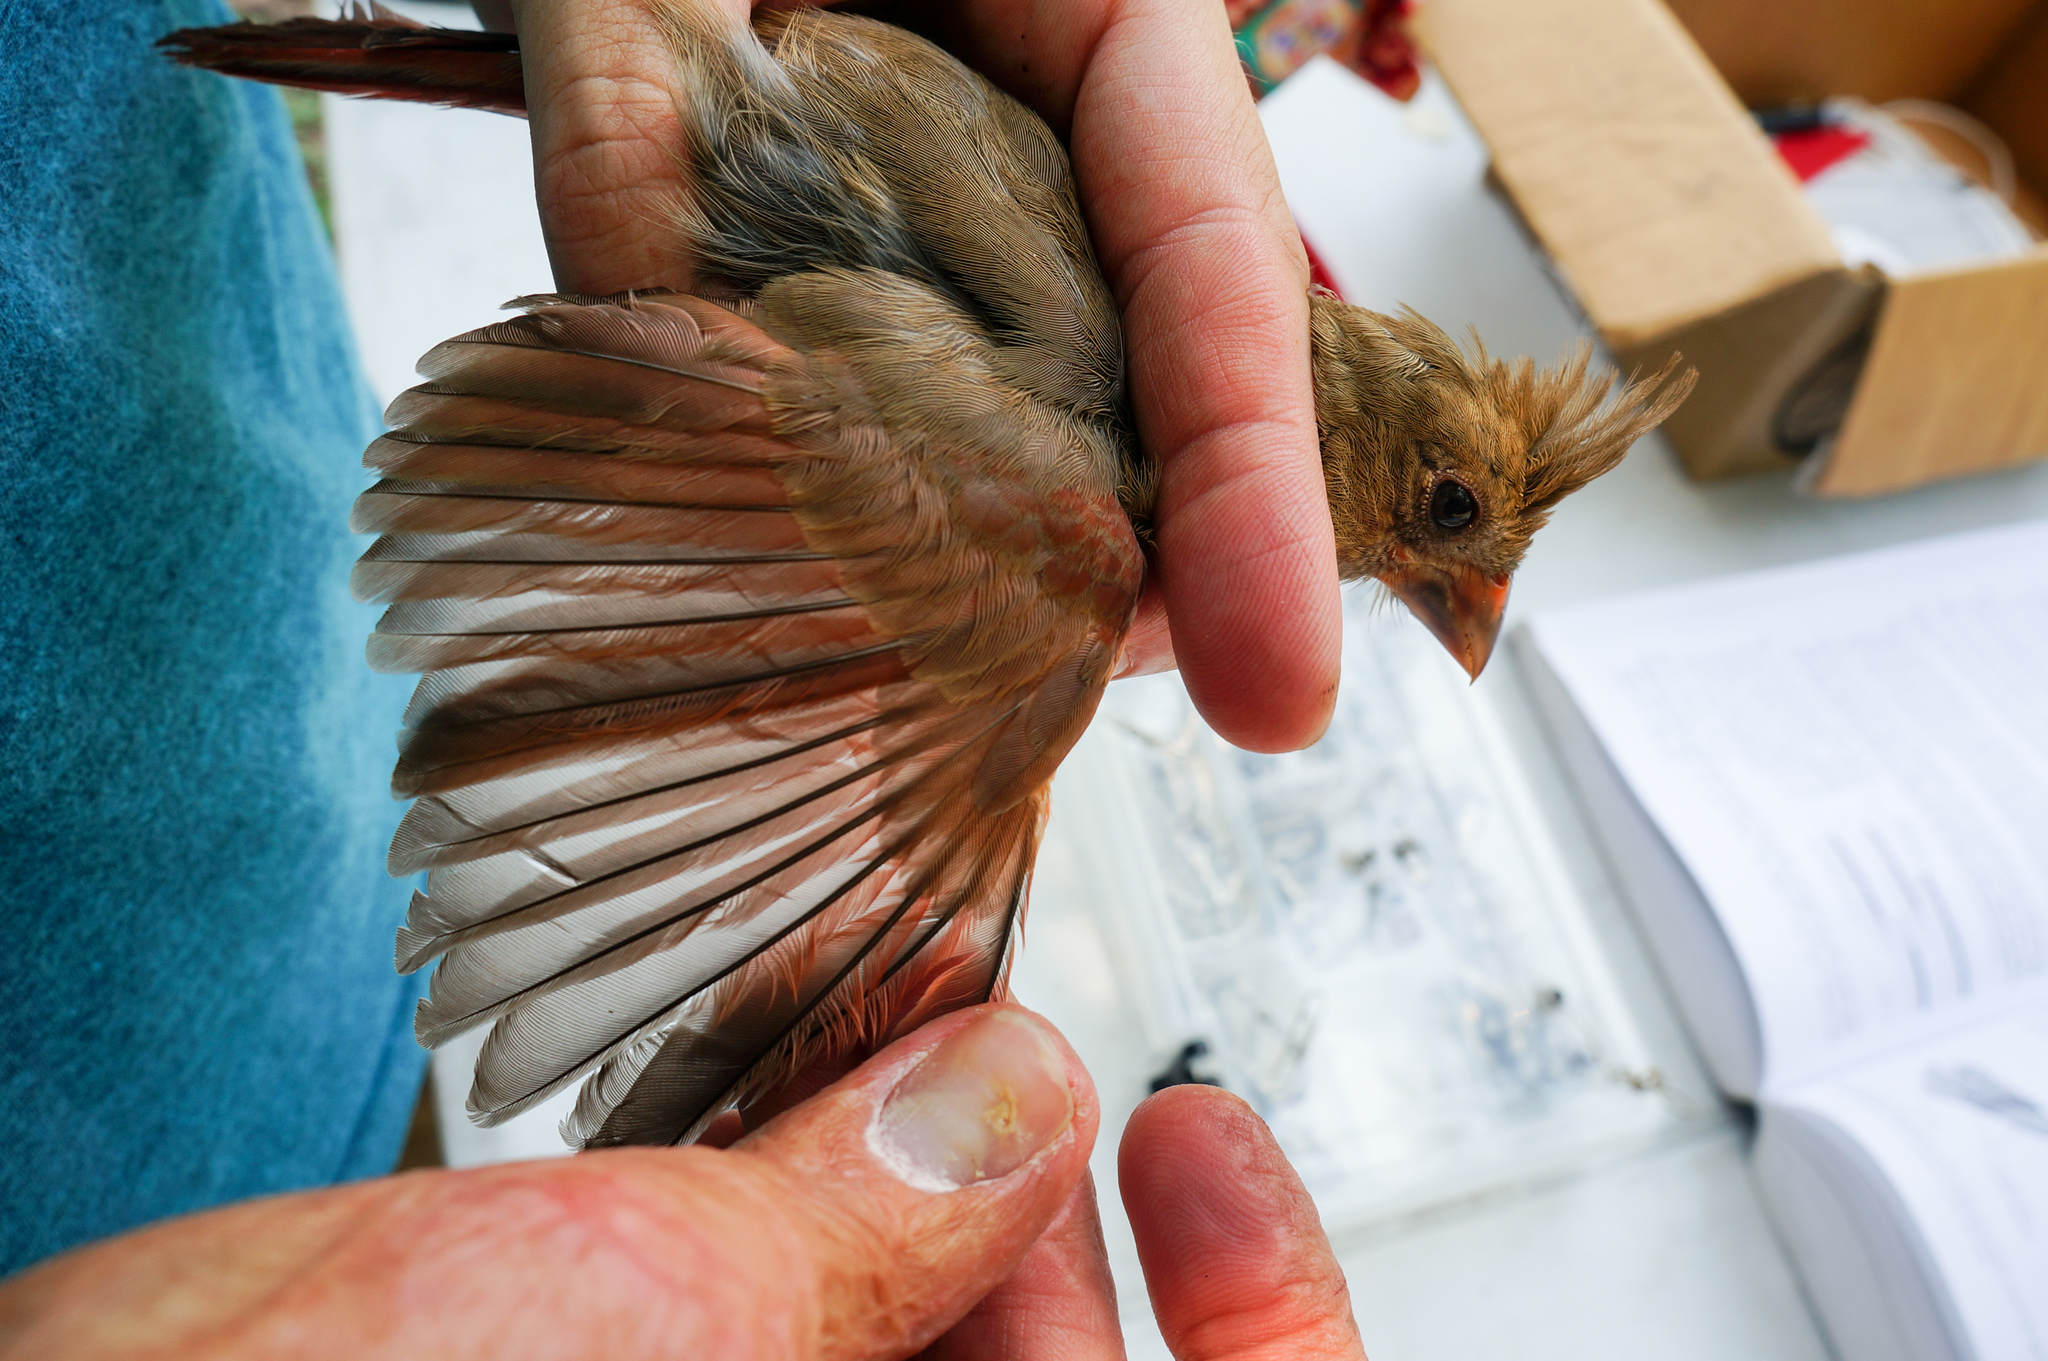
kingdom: Animalia
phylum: Chordata
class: Aves
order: Passeriformes
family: Cardinalidae
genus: Cardinalis
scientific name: Cardinalis cardinalis
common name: Northern cardinal
